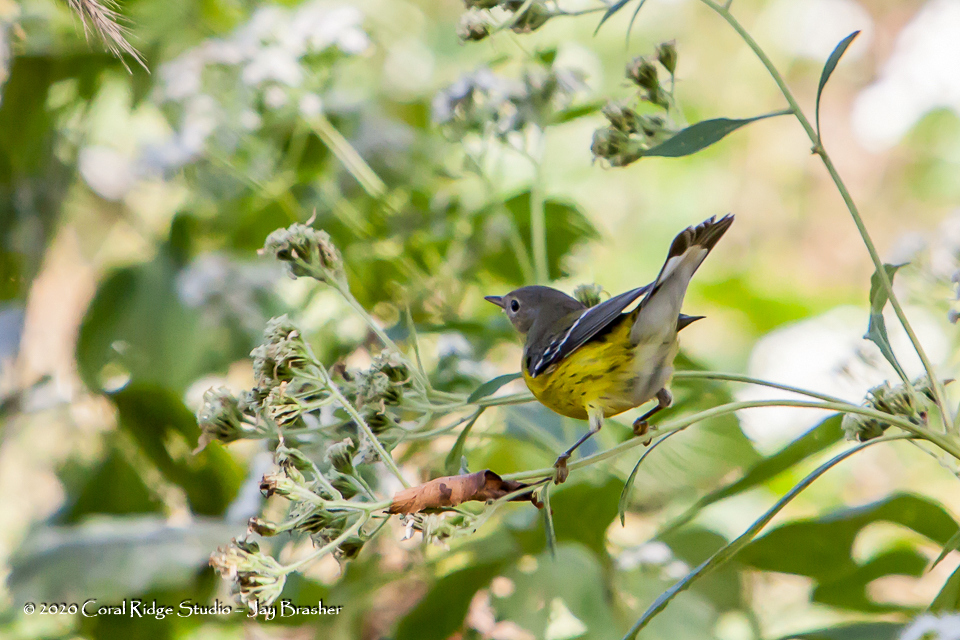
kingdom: Animalia
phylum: Chordata
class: Aves
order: Passeriformes
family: Parulidae
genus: Setophaga
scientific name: Setophaga magnolia
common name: Magnolia warbler
